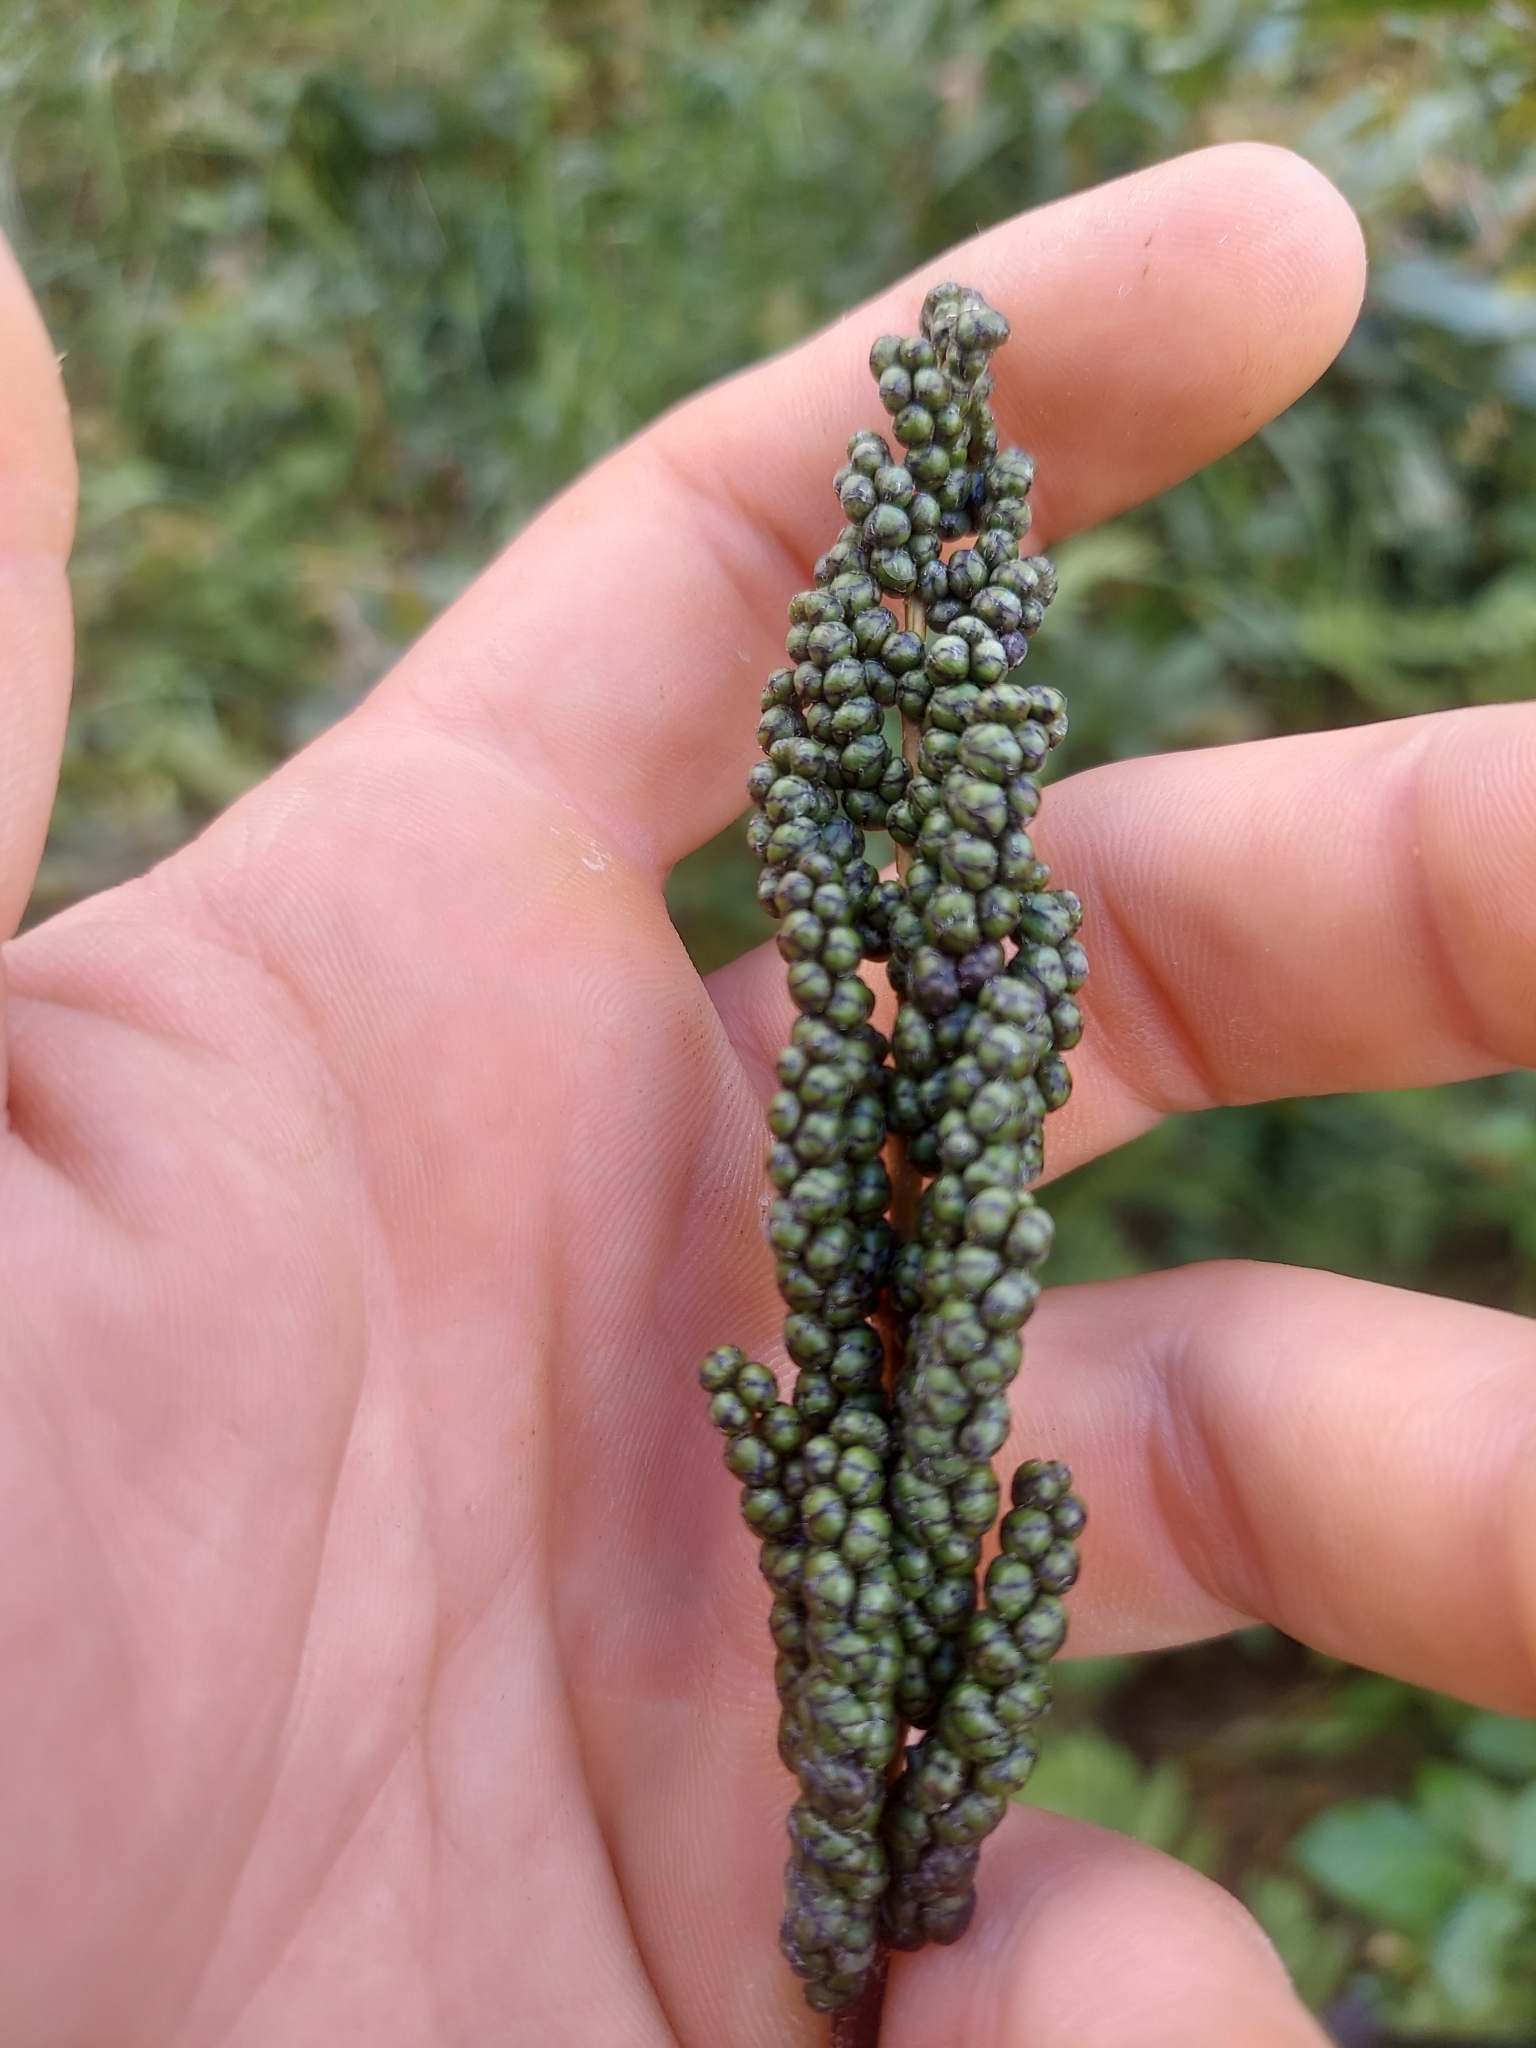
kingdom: Plantae
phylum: Tracheophyta
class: Polypodiopsida
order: Polypodiales
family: Onocleaceae
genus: Onoclea
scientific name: Onoclea sensibilis
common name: Sensitive fern
